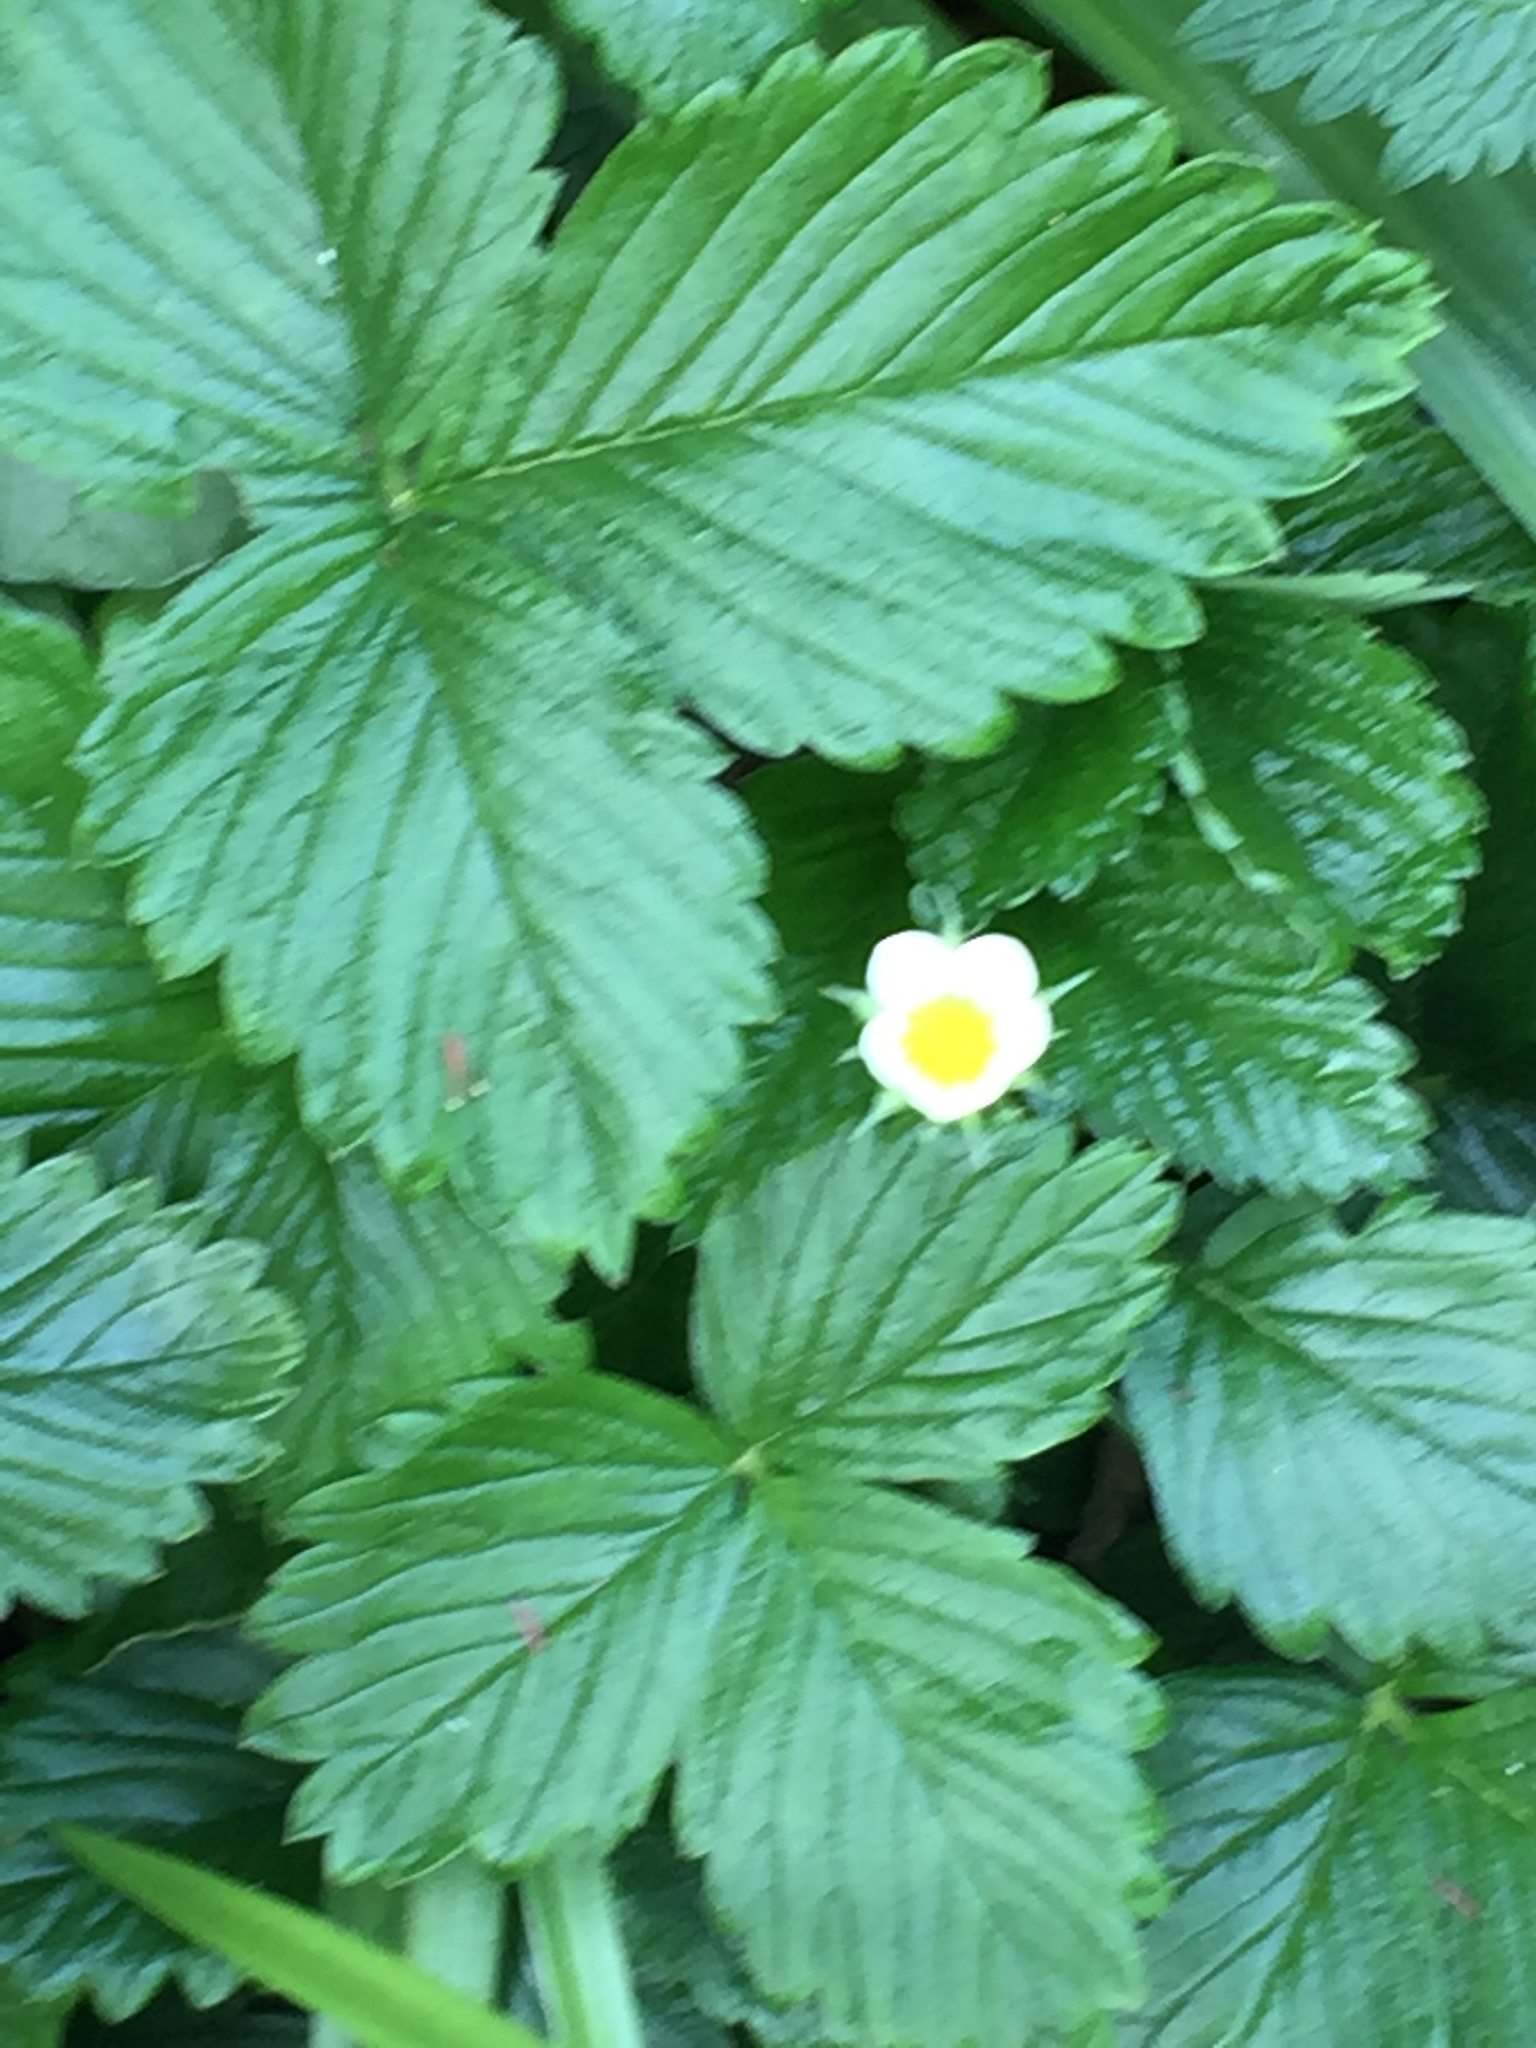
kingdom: Plantae
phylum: Tracheophyta
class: Magnoliopsida
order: Rosales
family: Rosaceae
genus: Fragaria
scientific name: Fragaria vesca
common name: Wild strawberry
